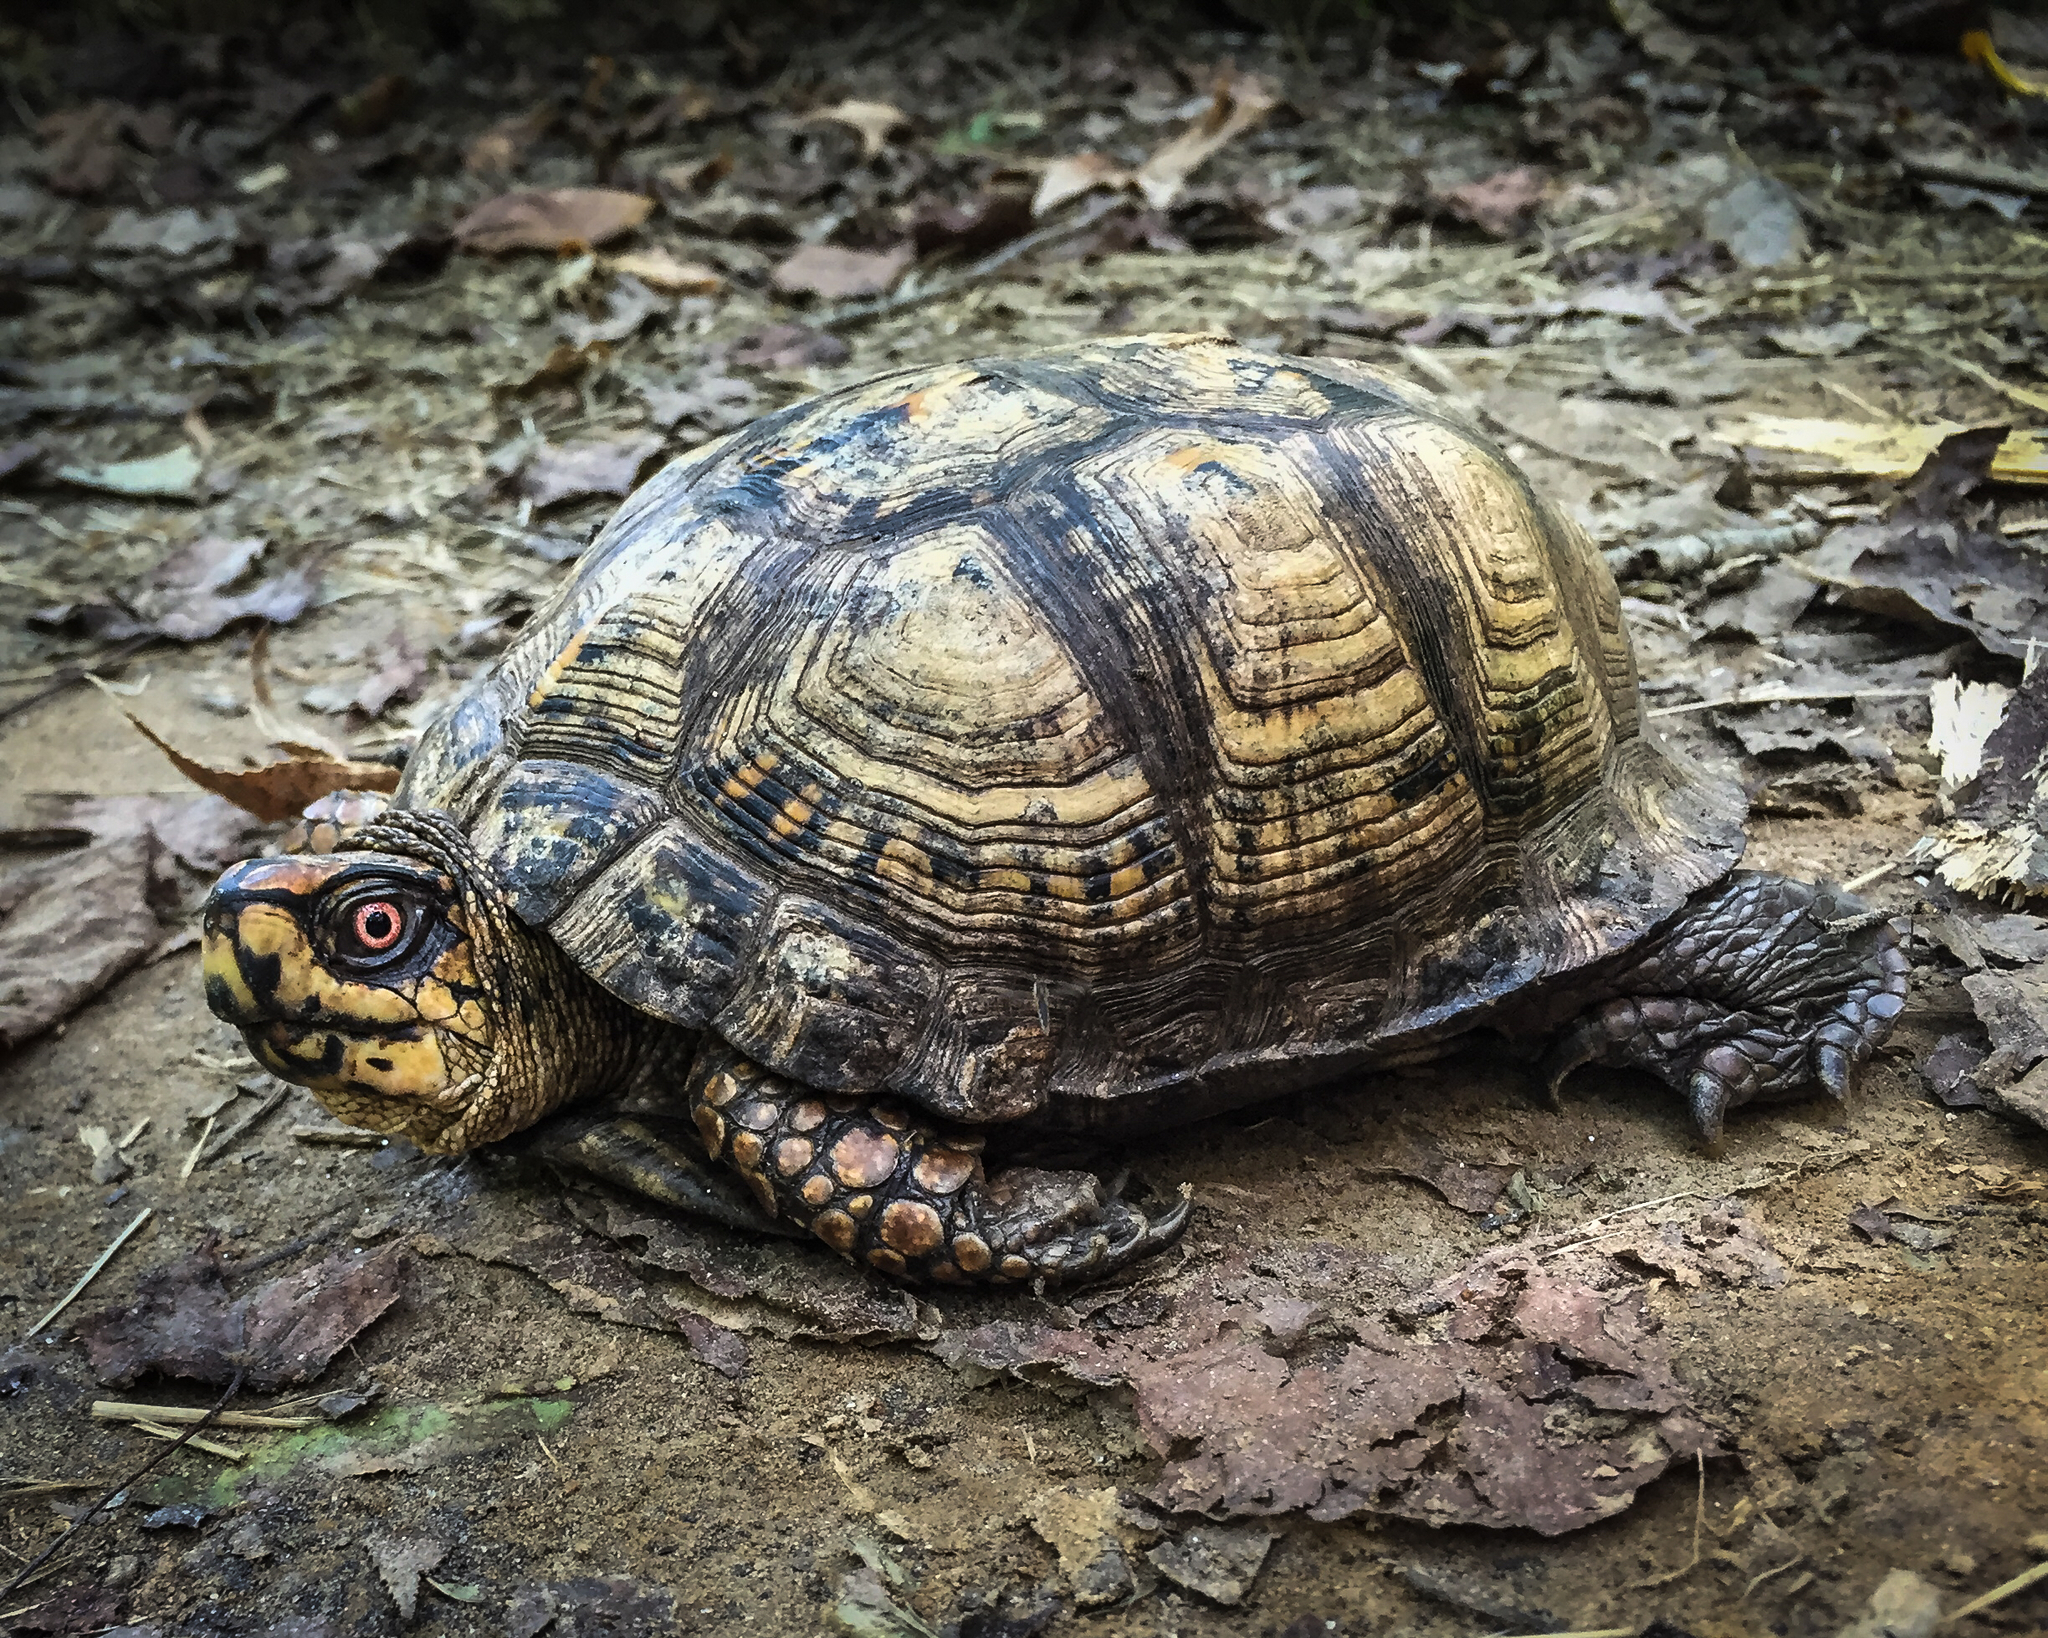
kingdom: Animalia
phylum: Chordata
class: Testudines
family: Emydidae
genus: Terrapene
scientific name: Terrapene carolina
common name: Common box turtle
